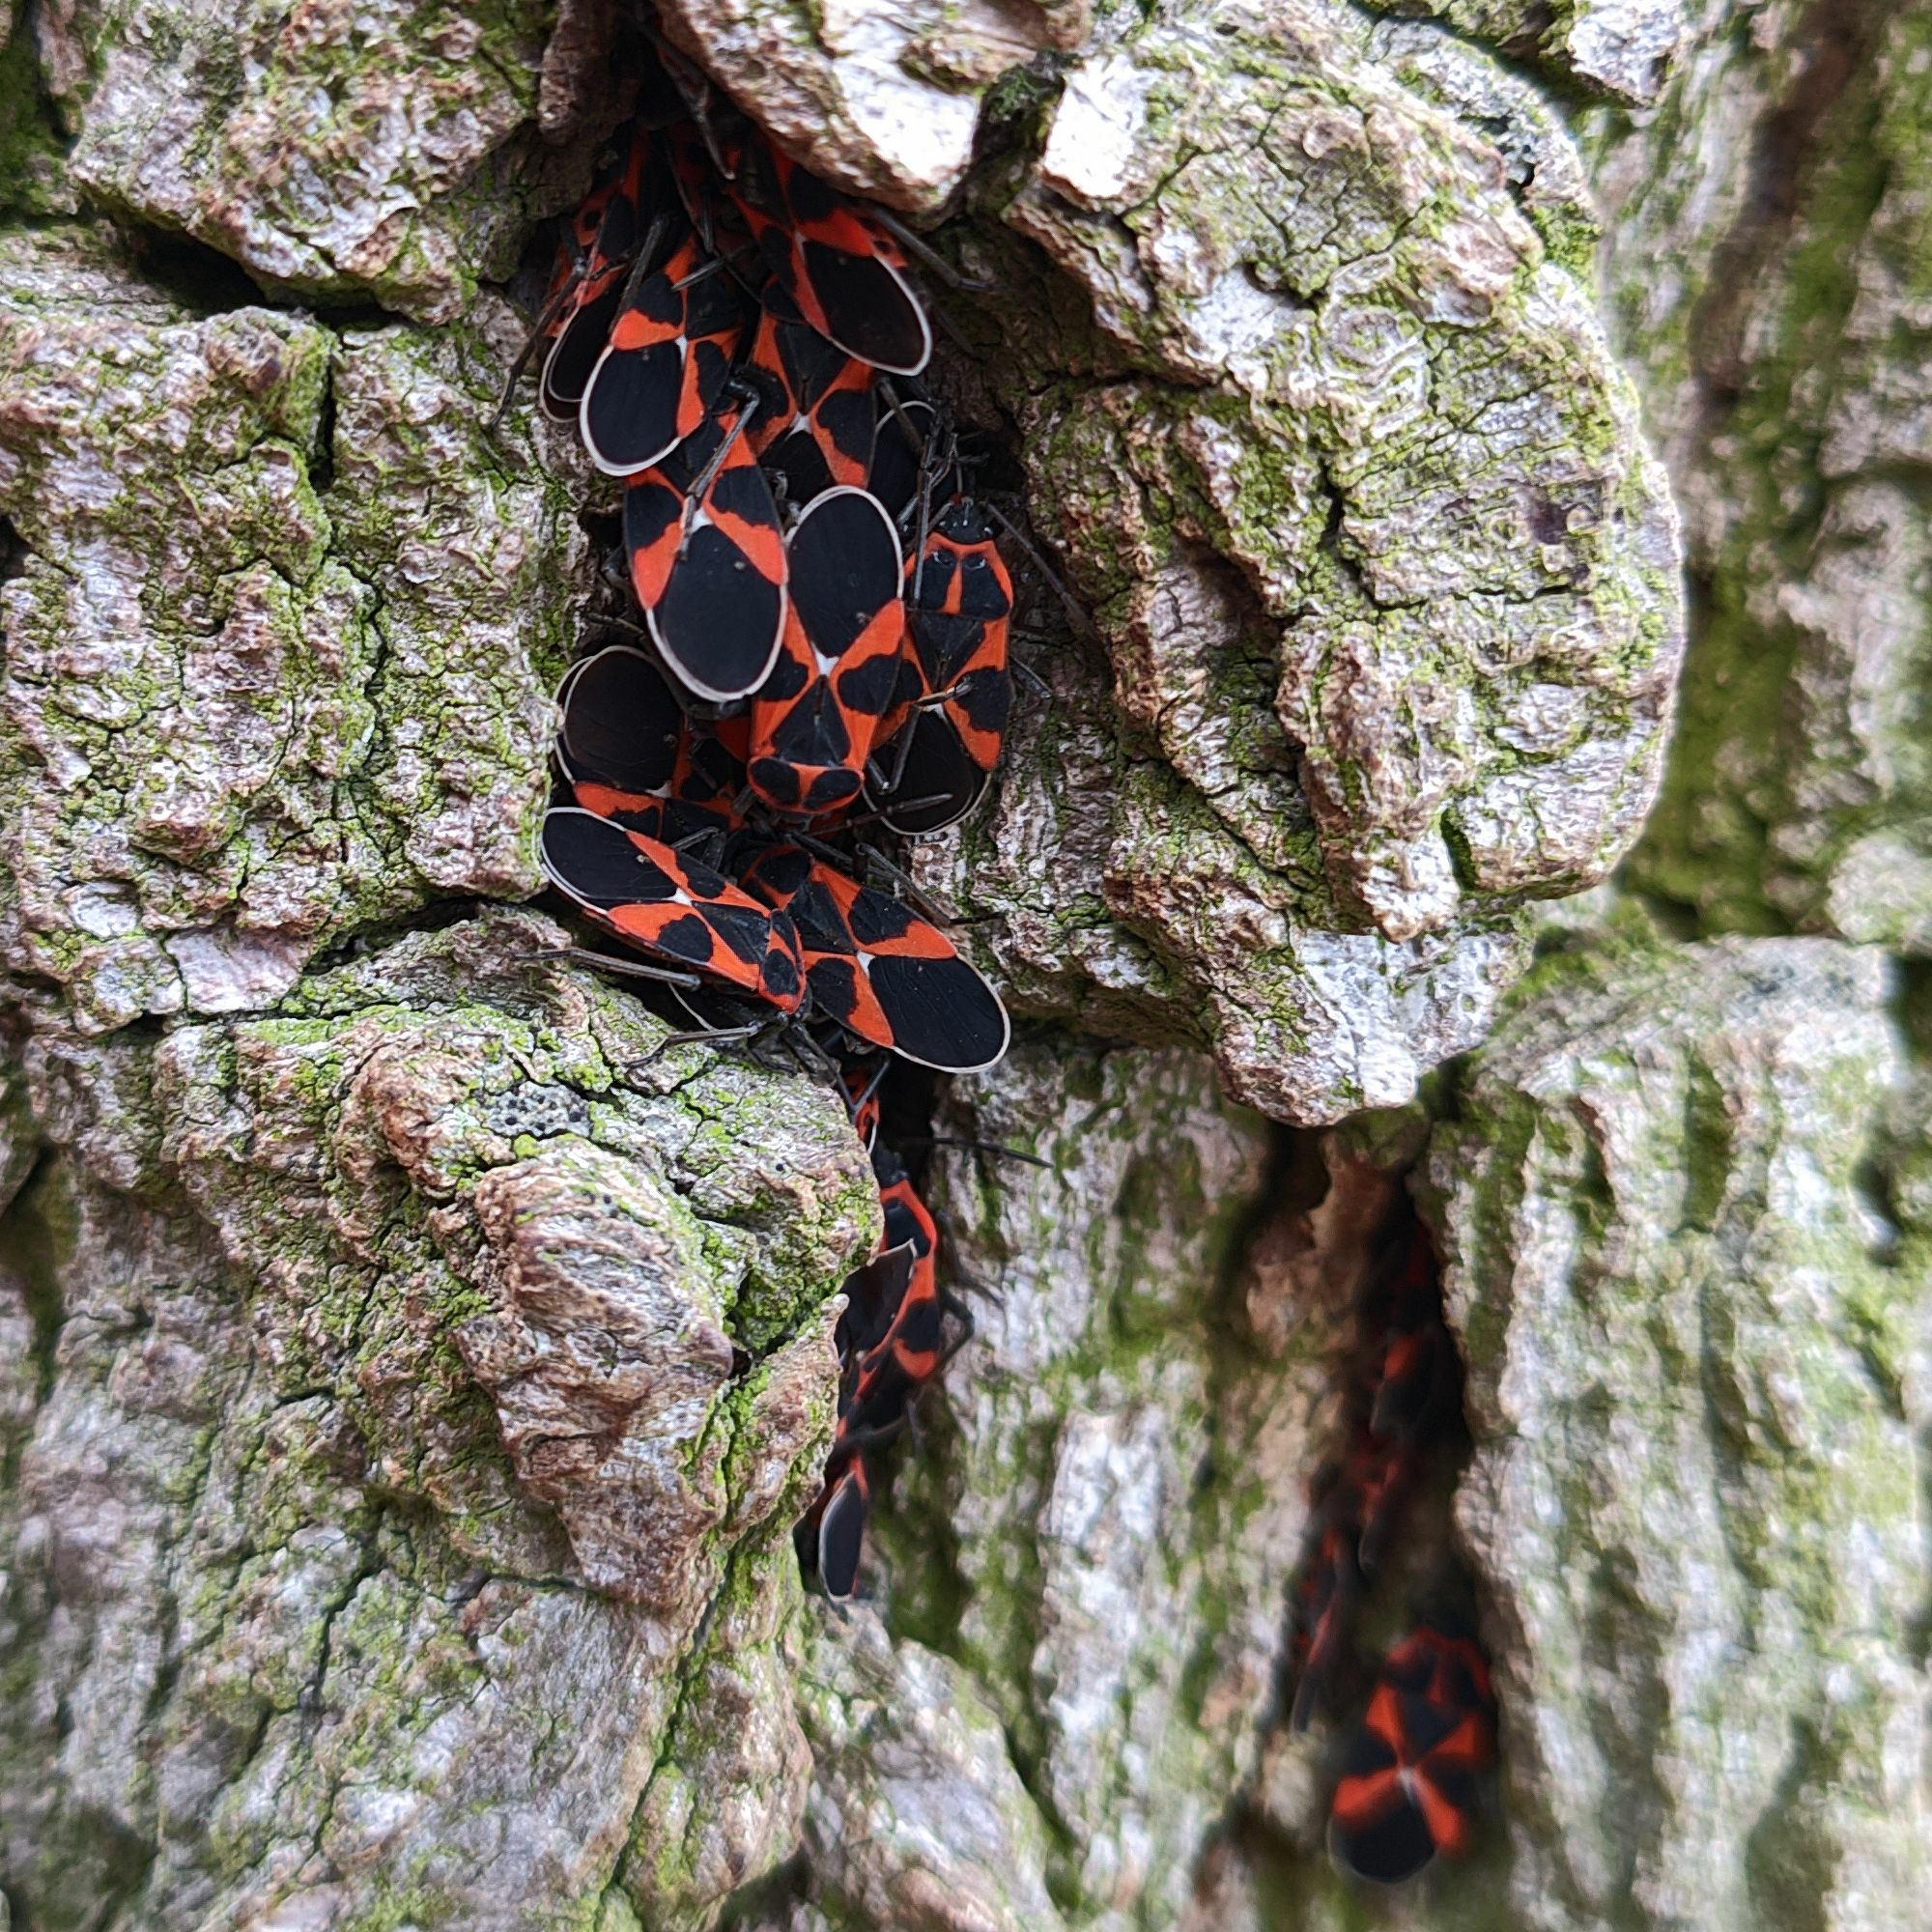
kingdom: Animalia
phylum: Arthropoda
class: Insecta
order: Hemiptera
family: Lygaeidae
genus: Tropidothorax
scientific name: Tropidothorax leucopterus
